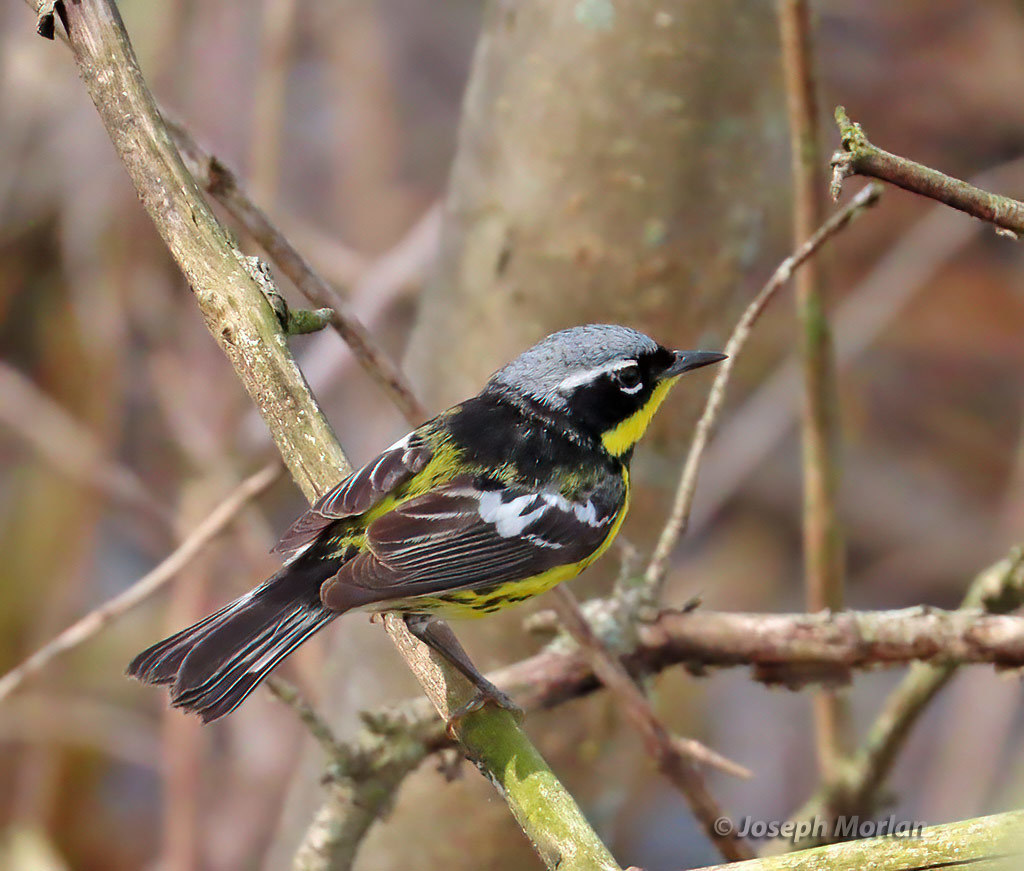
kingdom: Animalia
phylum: Chordata
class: Aves
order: Passeriformes
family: Parulidae
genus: Setophaga
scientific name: Setophaga magnolia
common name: Magnolia warbler
